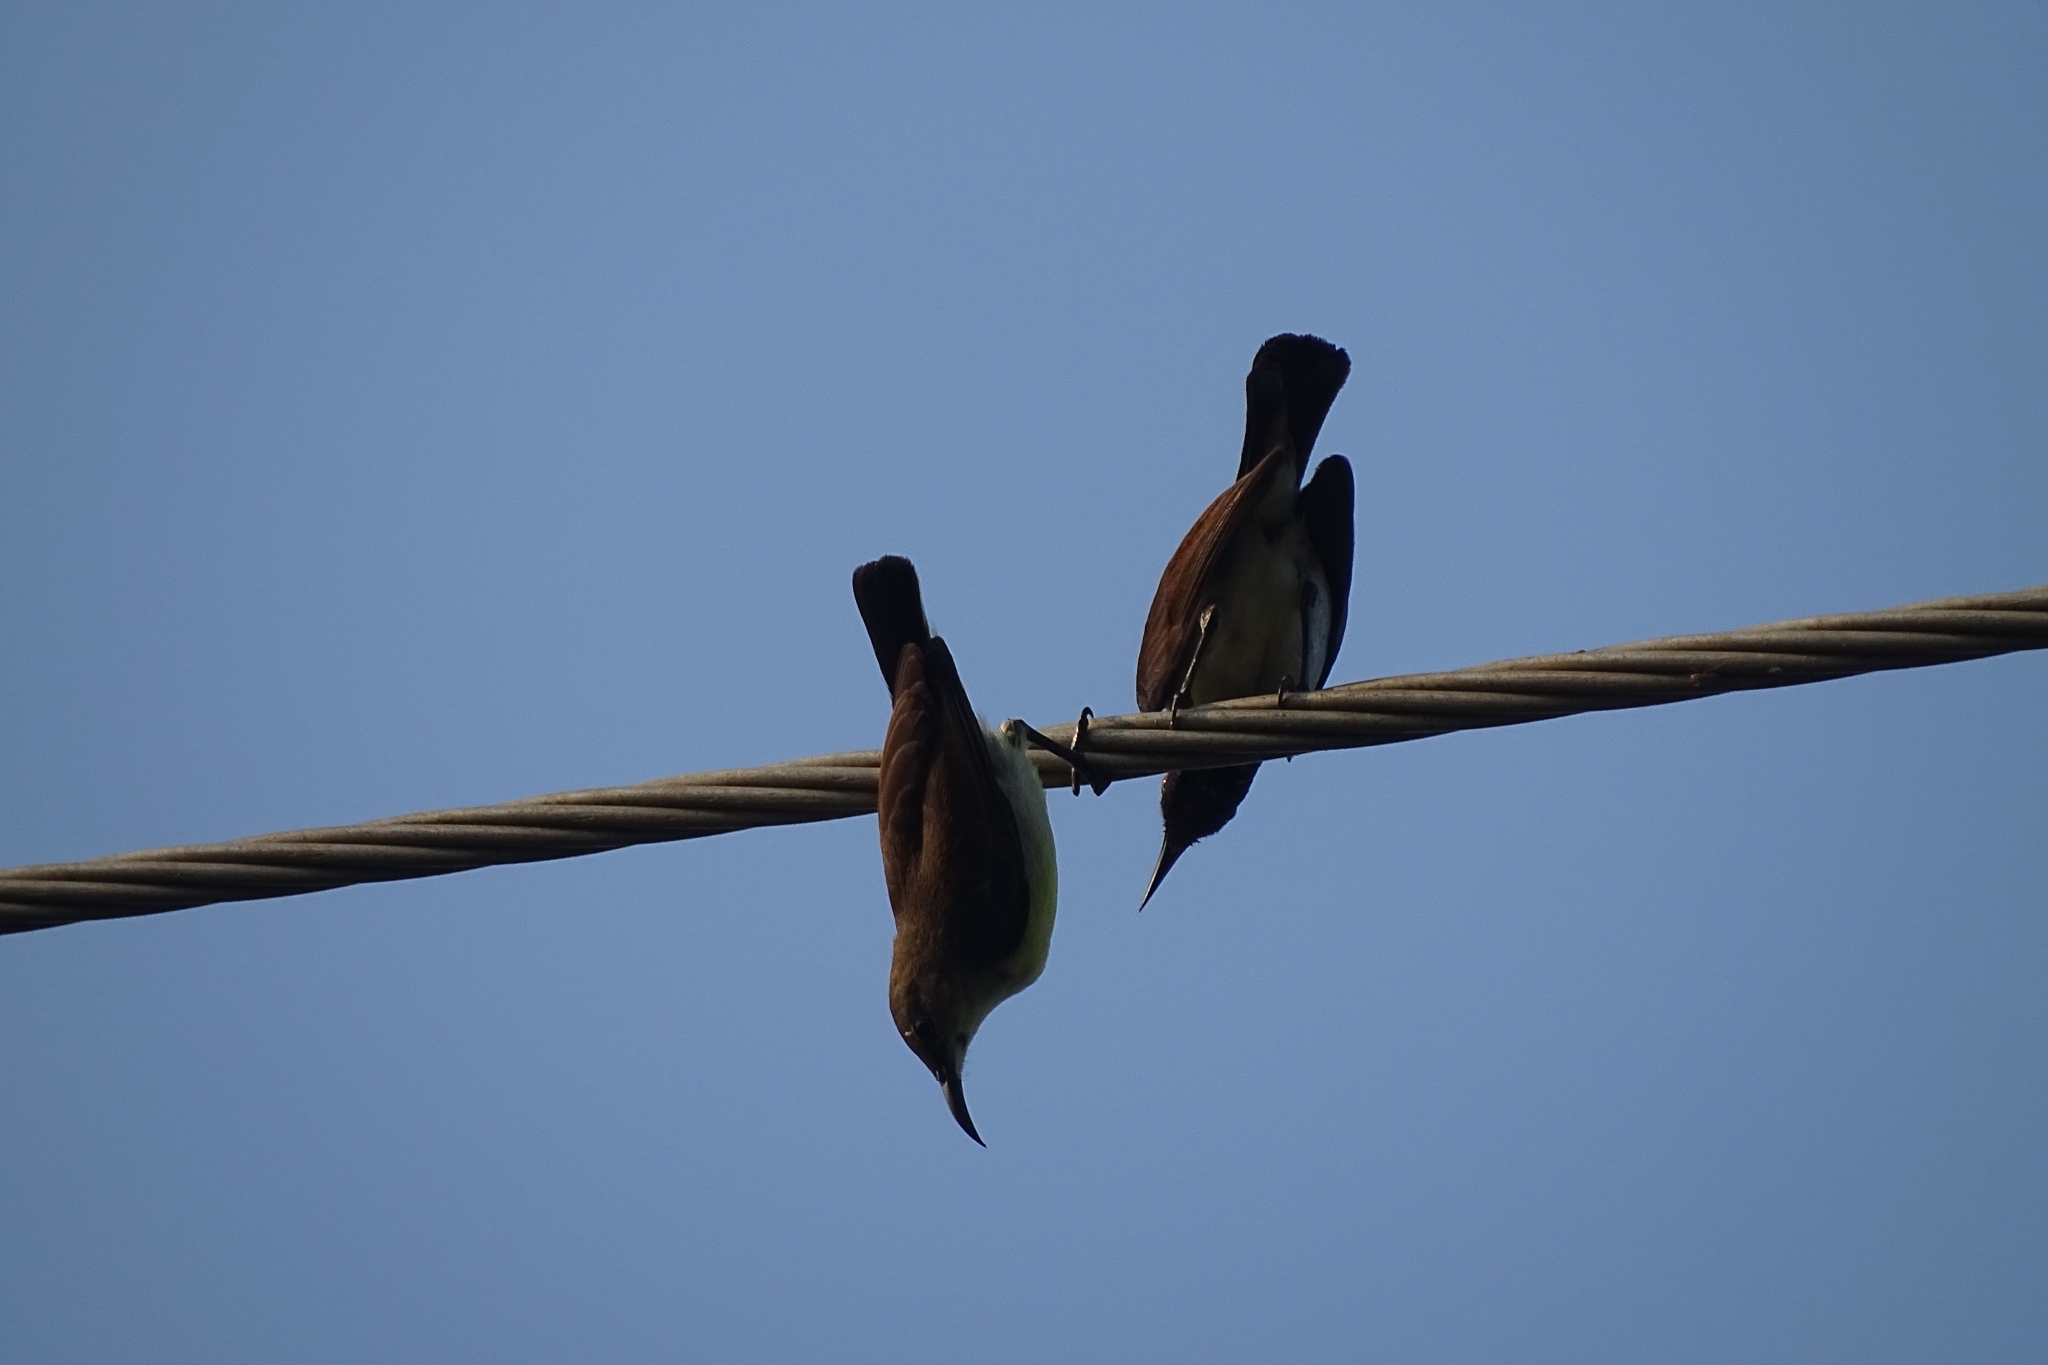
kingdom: Animalia
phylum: Chordata
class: Aves
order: Passeriformes
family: Nectariniidae
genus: Leptocoma
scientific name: Leptocoma zeylonica
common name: Purple-rumped sunbird
